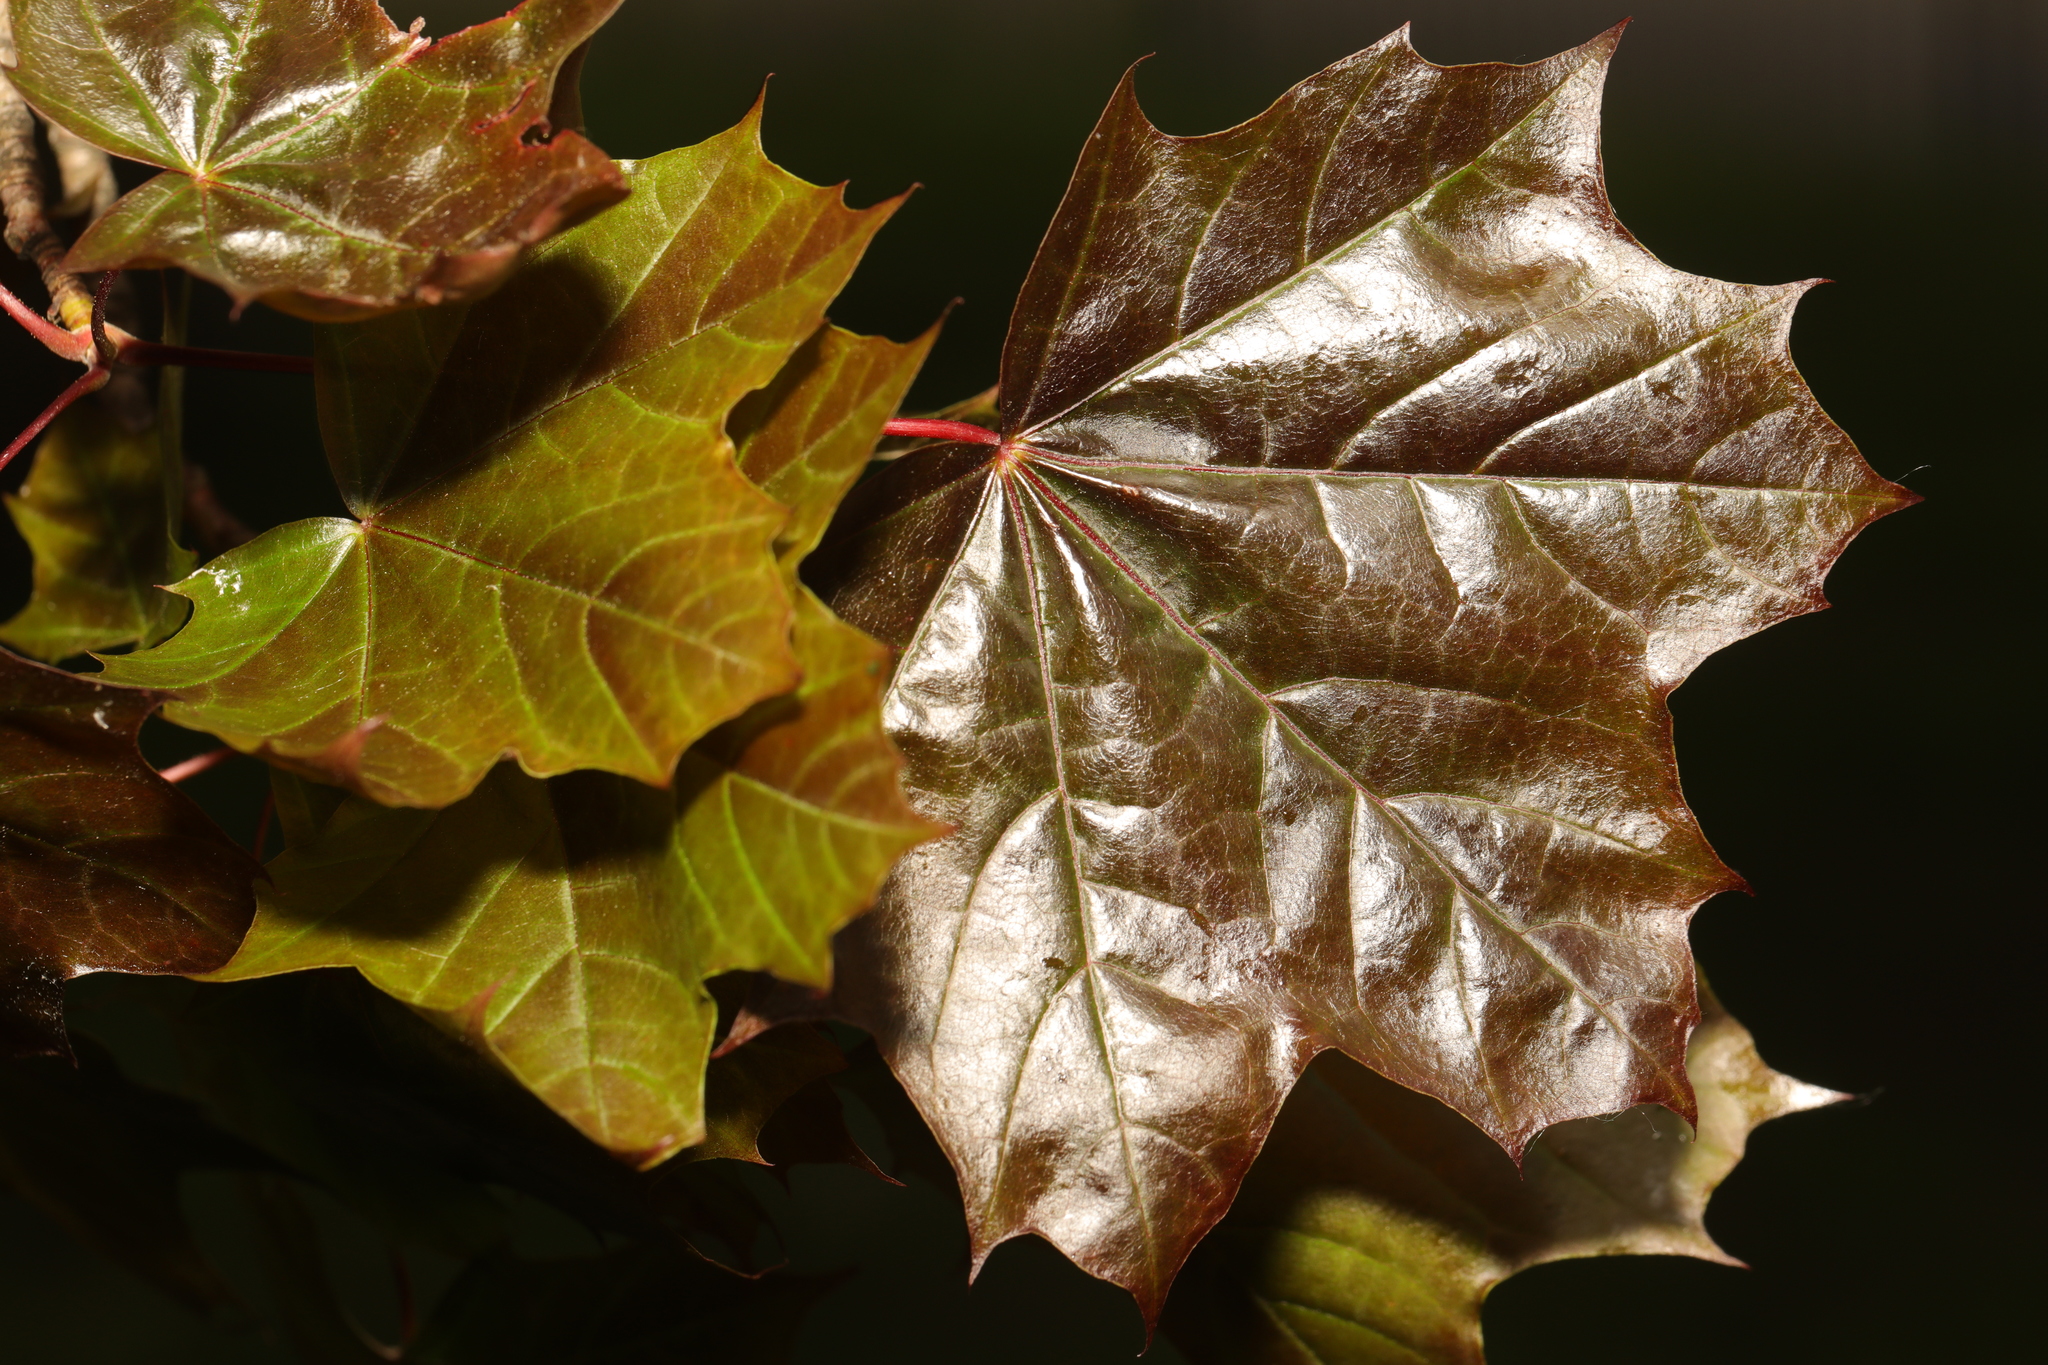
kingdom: Plantae
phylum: Tracheophyta
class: Magnoliopsida
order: Sapindales
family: Sapindaceae
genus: Acer
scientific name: Acer platanoides
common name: Norway maple
